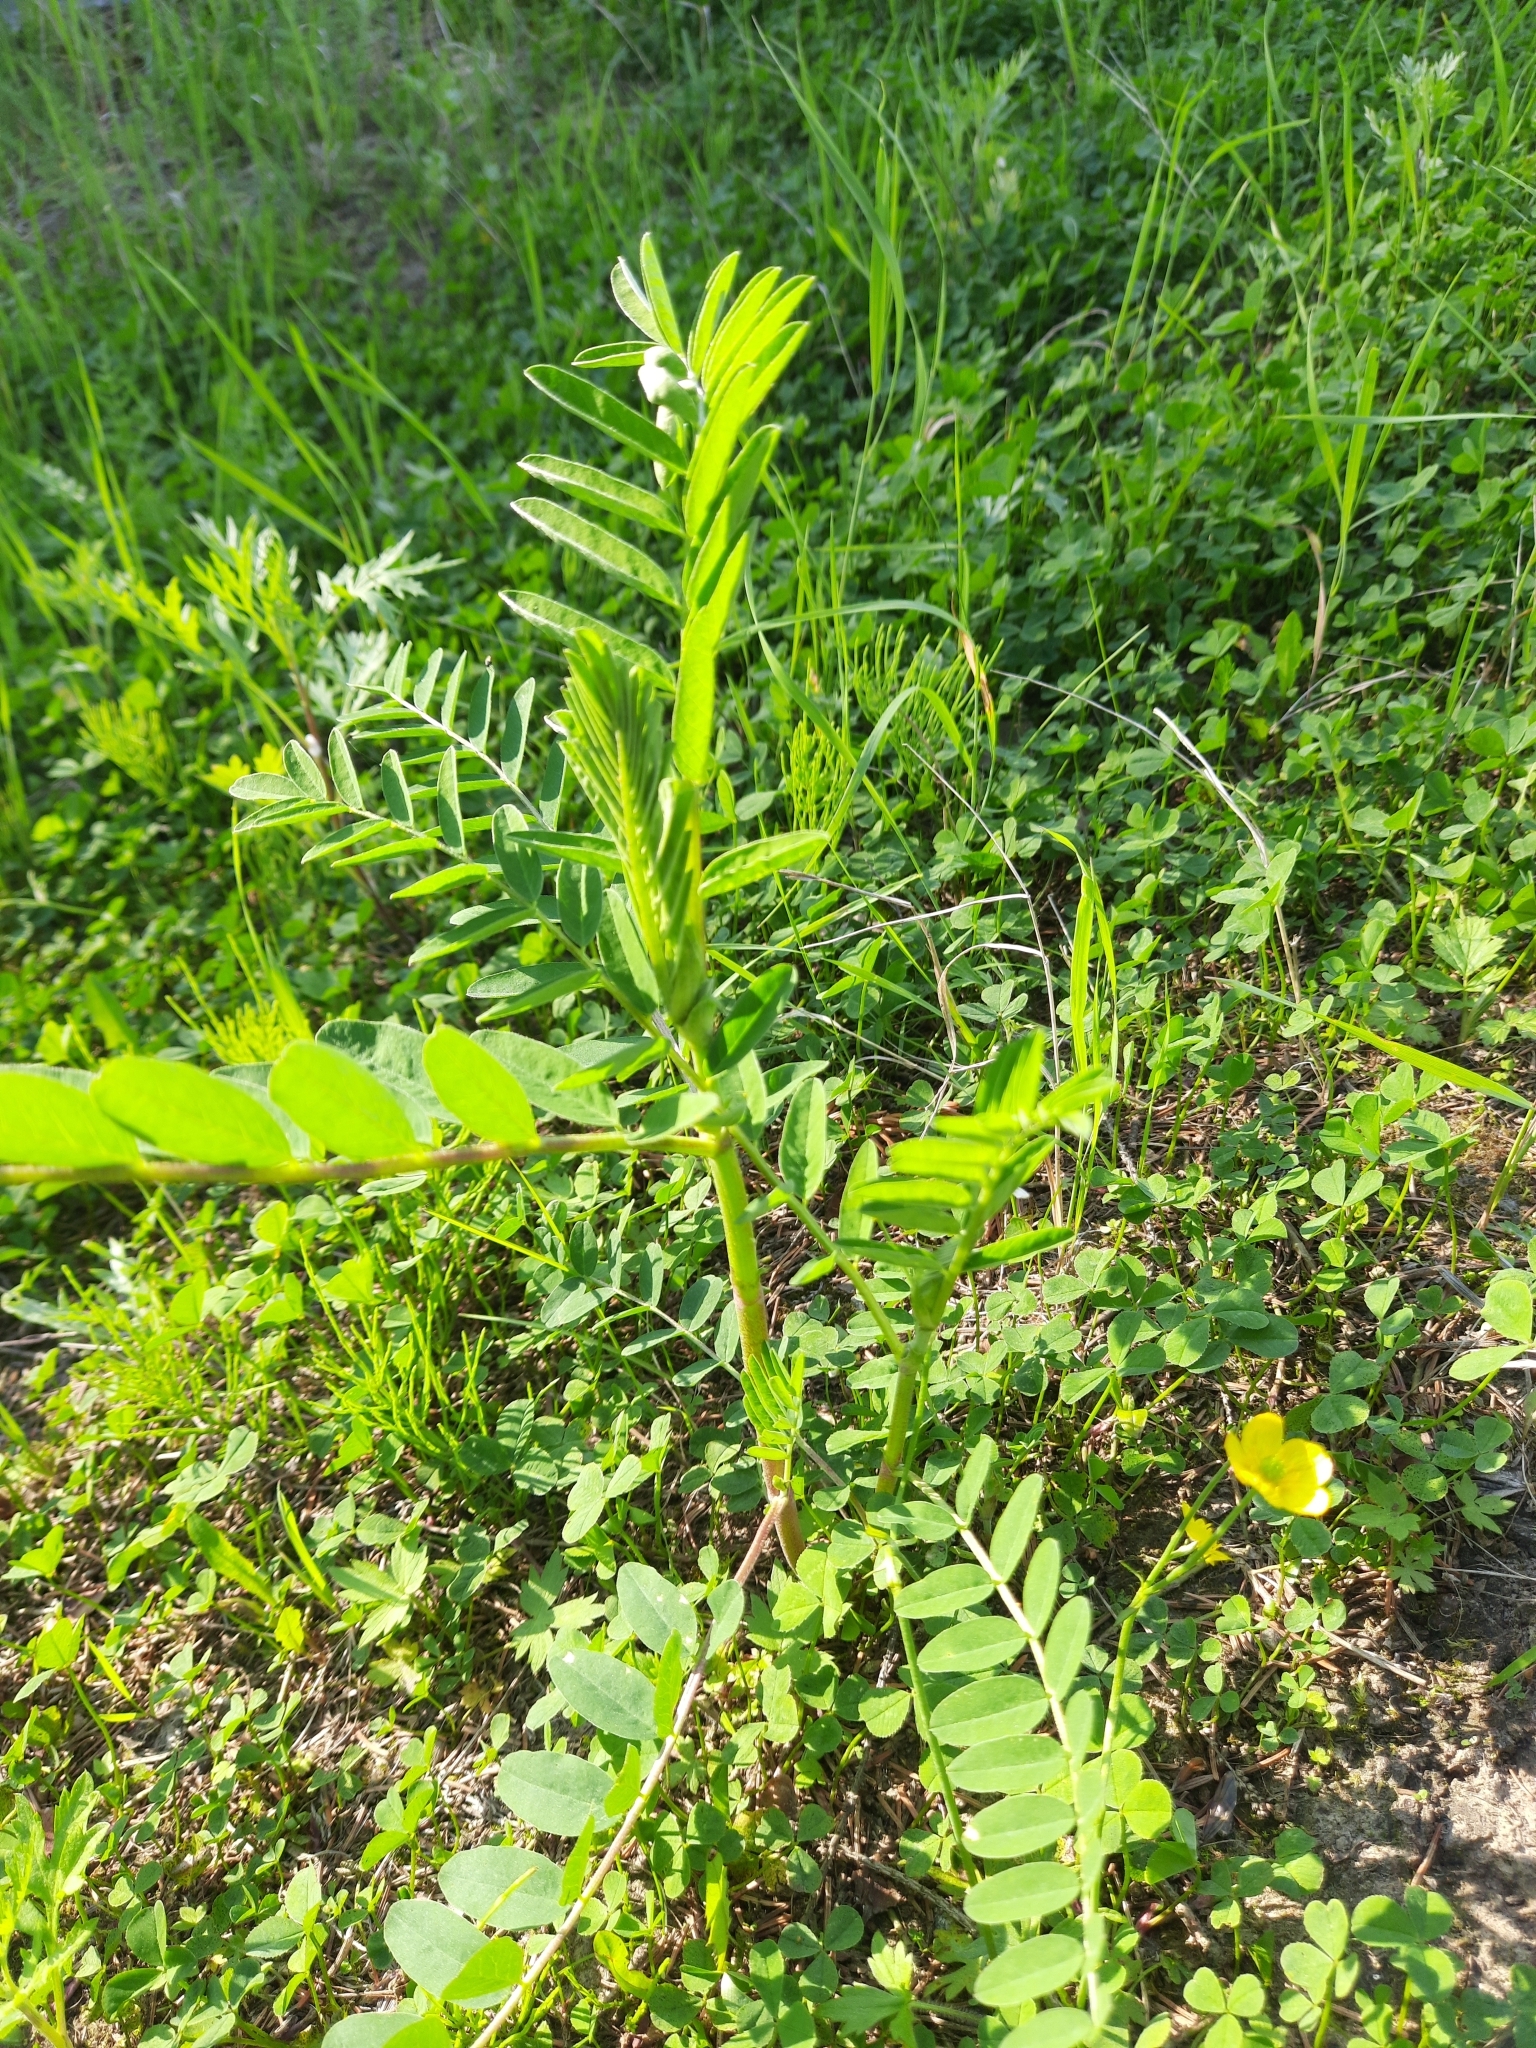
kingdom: Plantae
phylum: Tracheophyta
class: Magnoliopsida
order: Fabales
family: Fabaceae
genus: Astragalus
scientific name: Astragalus uliginosus
